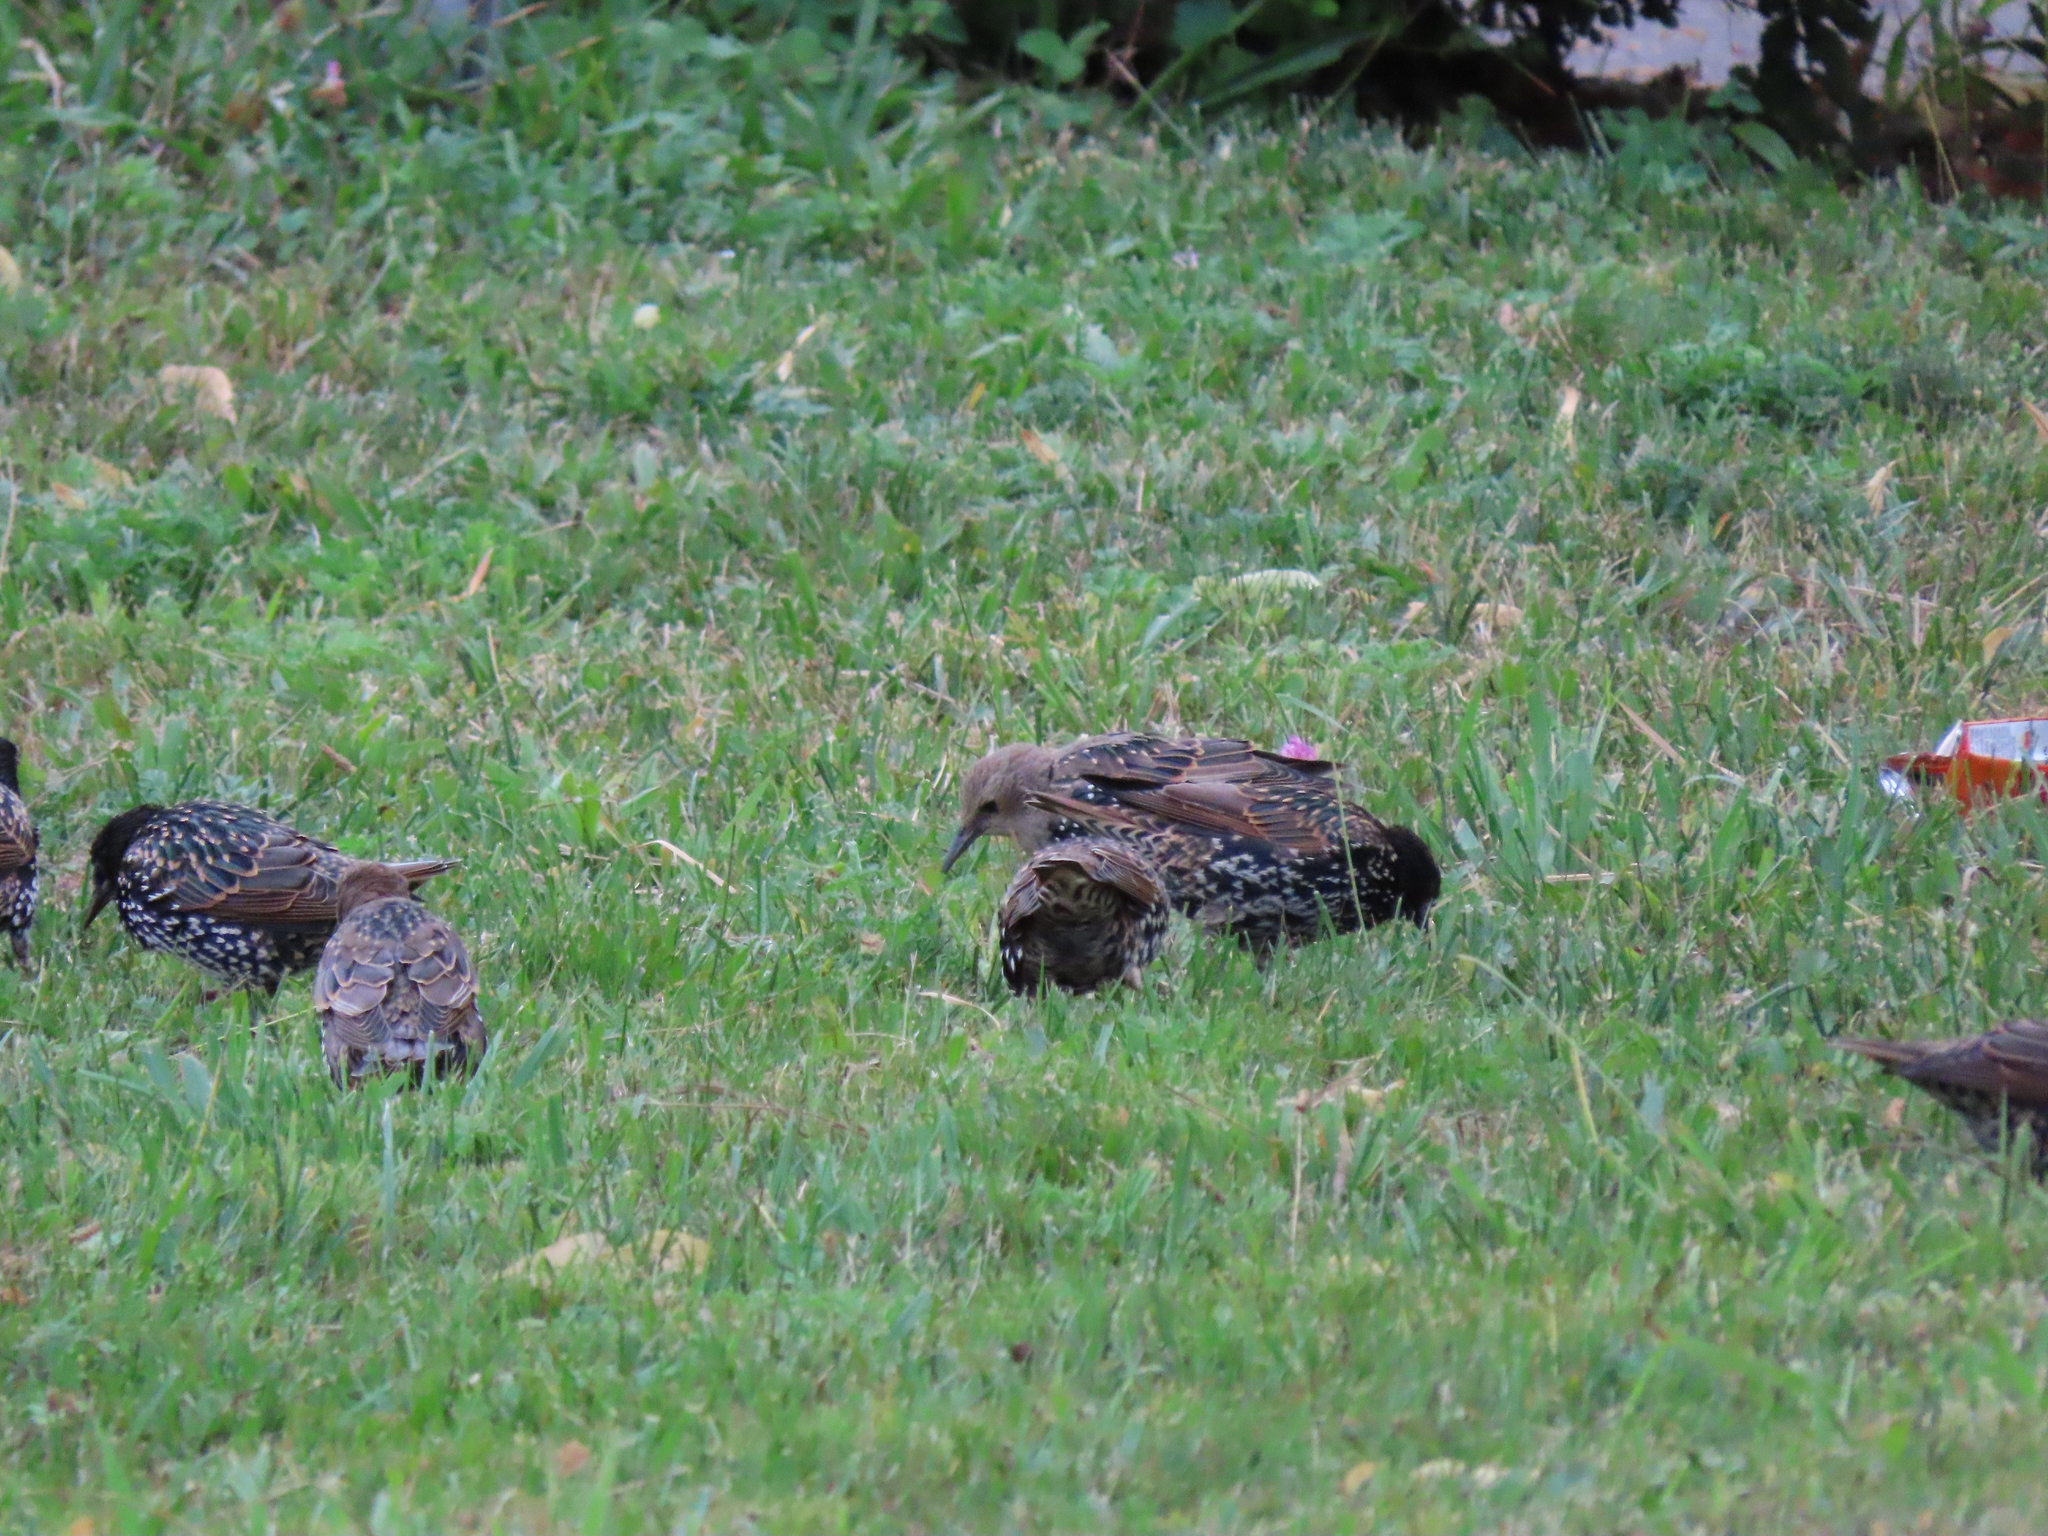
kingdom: Animalia
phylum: Chordata
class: Aves
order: Passeriformes
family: Sturnidae
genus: Sturnus
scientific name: Sturnus vulgaris
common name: Common starling
